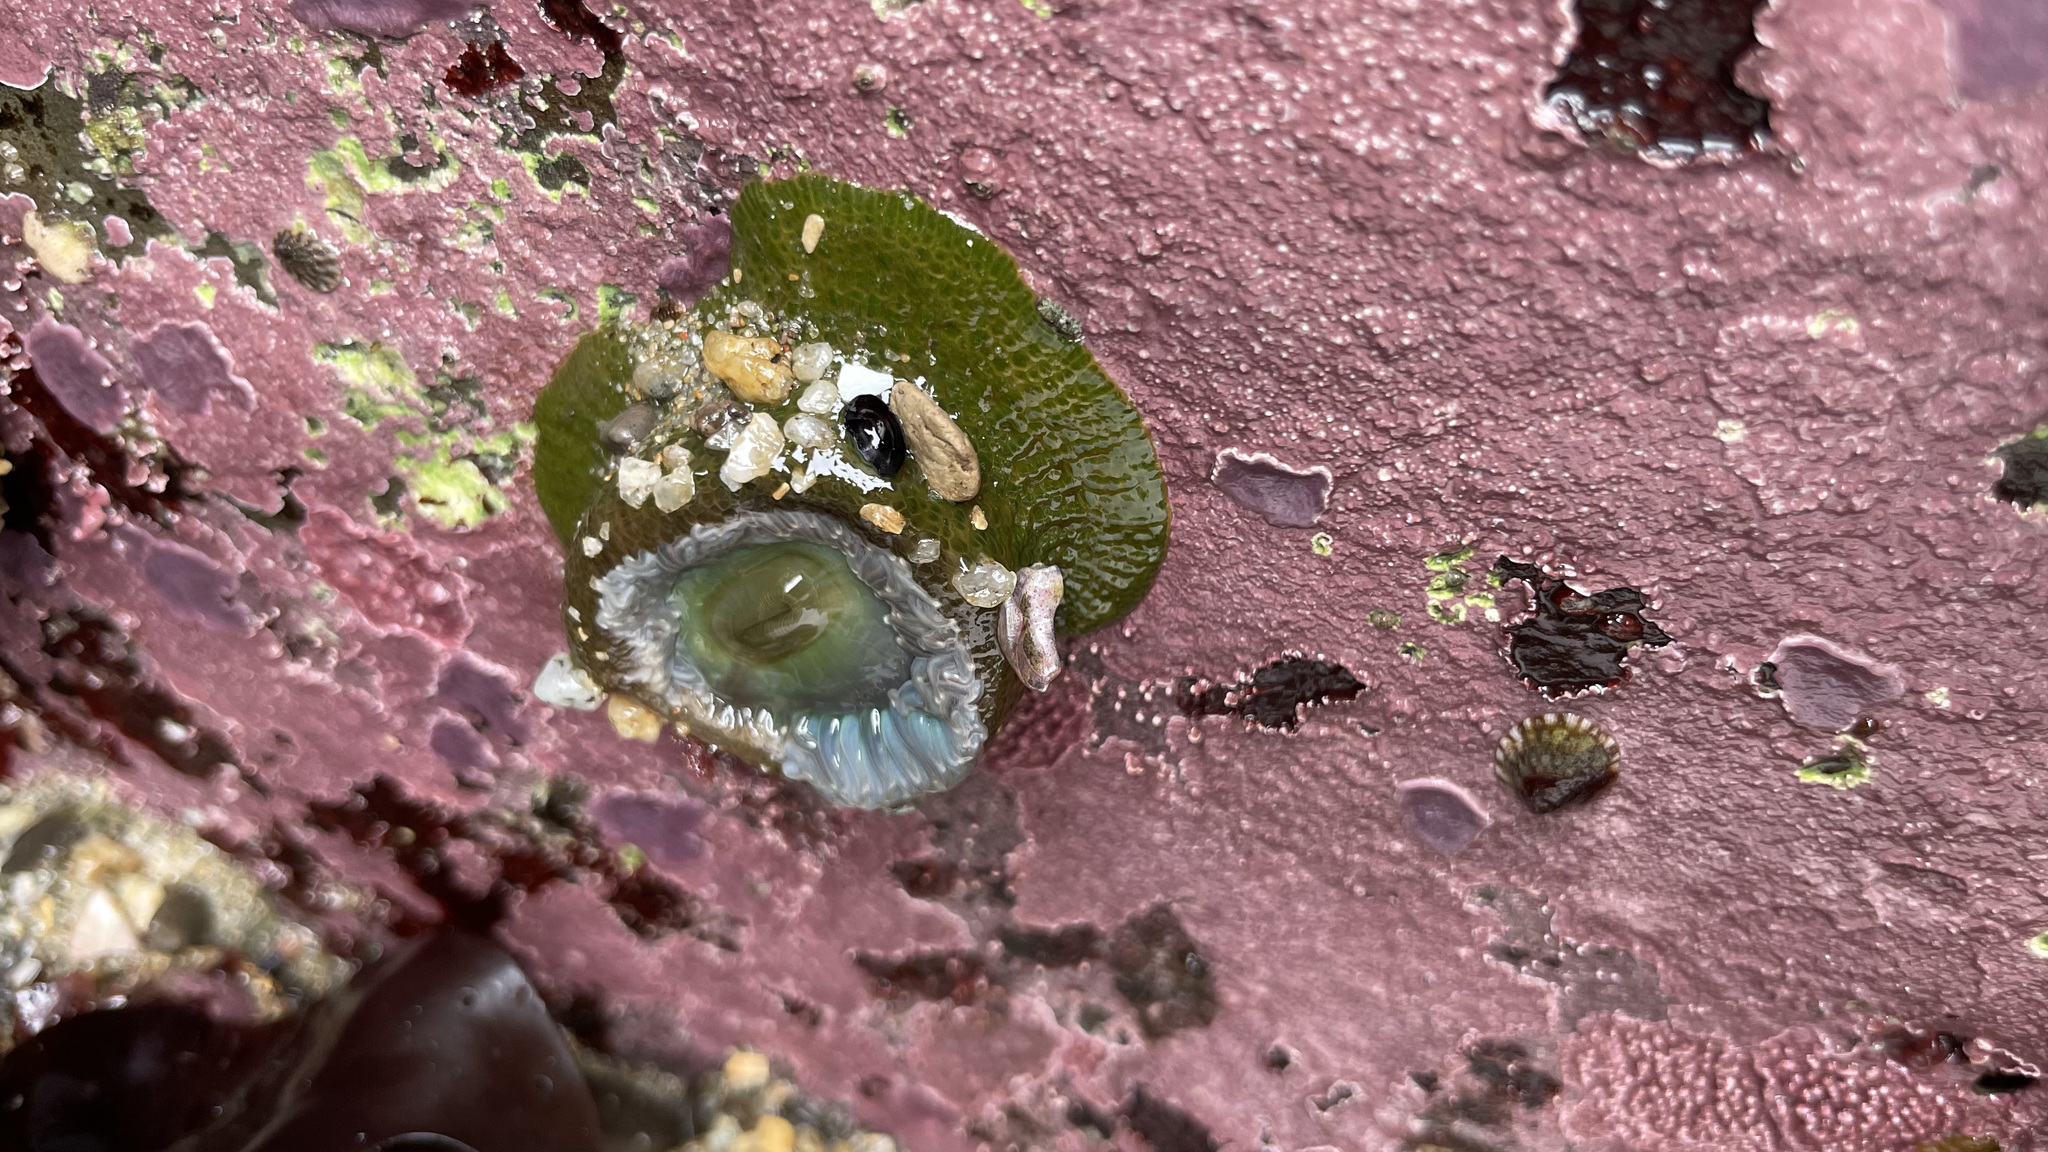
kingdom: Animalia
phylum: Cnidaria
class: Anthozoa
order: Actiniaria
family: Actiniidae
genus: Anthopleura
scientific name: Anthopleura xanthogrammica
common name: Giant green anemone
